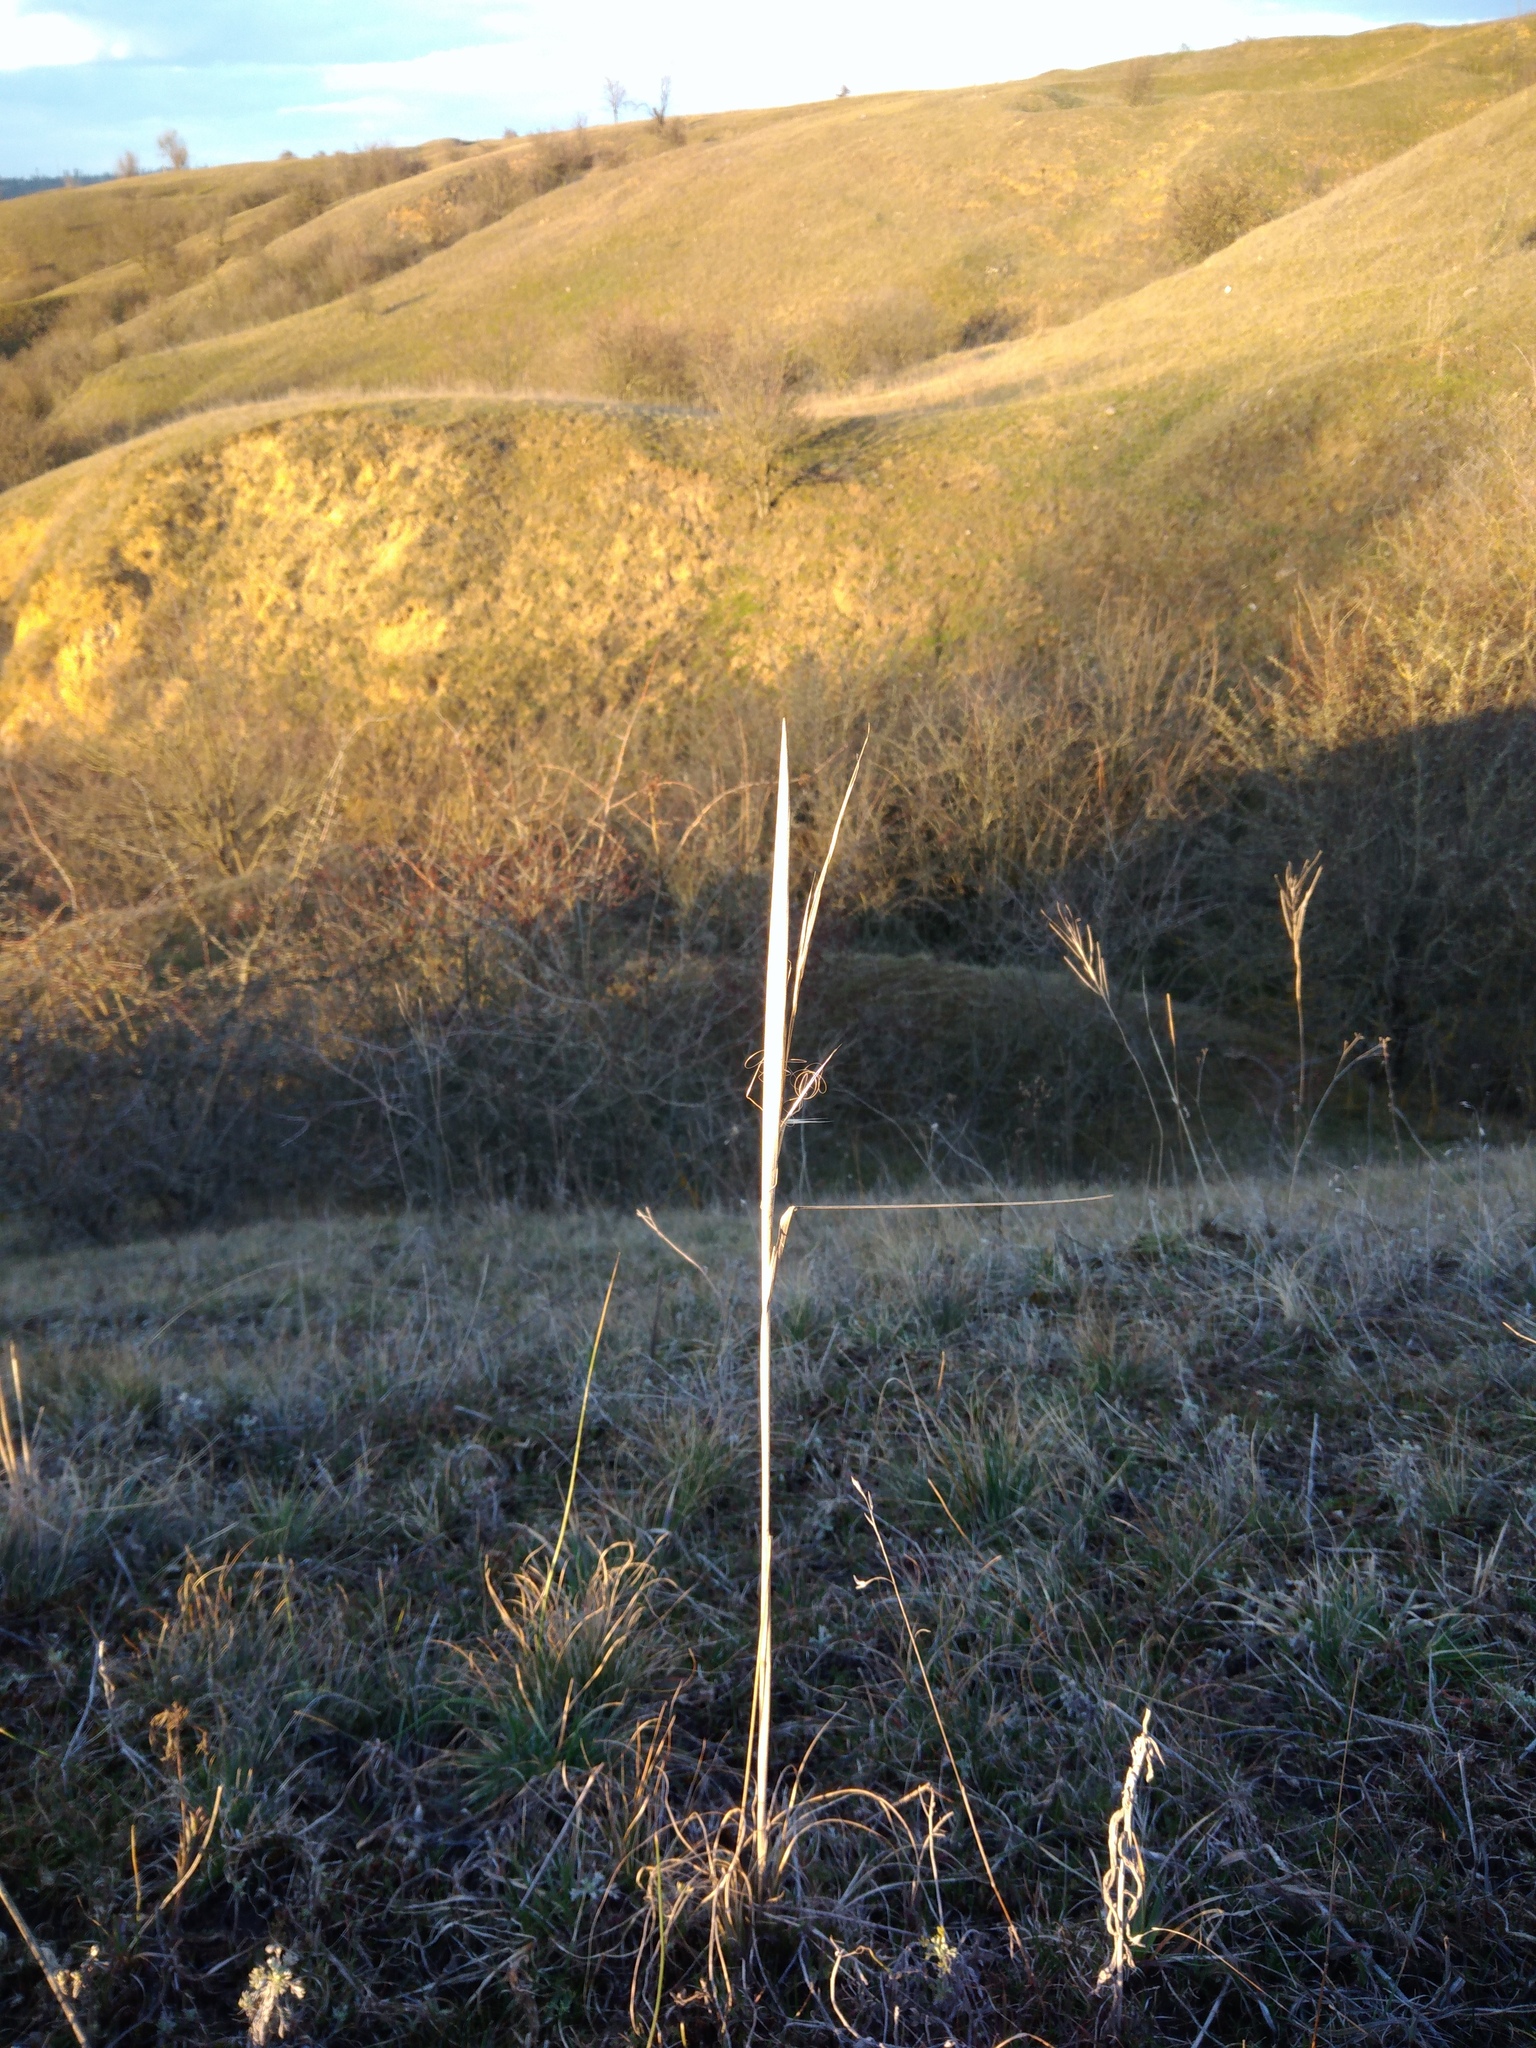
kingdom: Plantae
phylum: Tracheophyta
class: Liliopsida
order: Poales
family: Poaceae
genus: Stipa
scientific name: Stipa capillata
